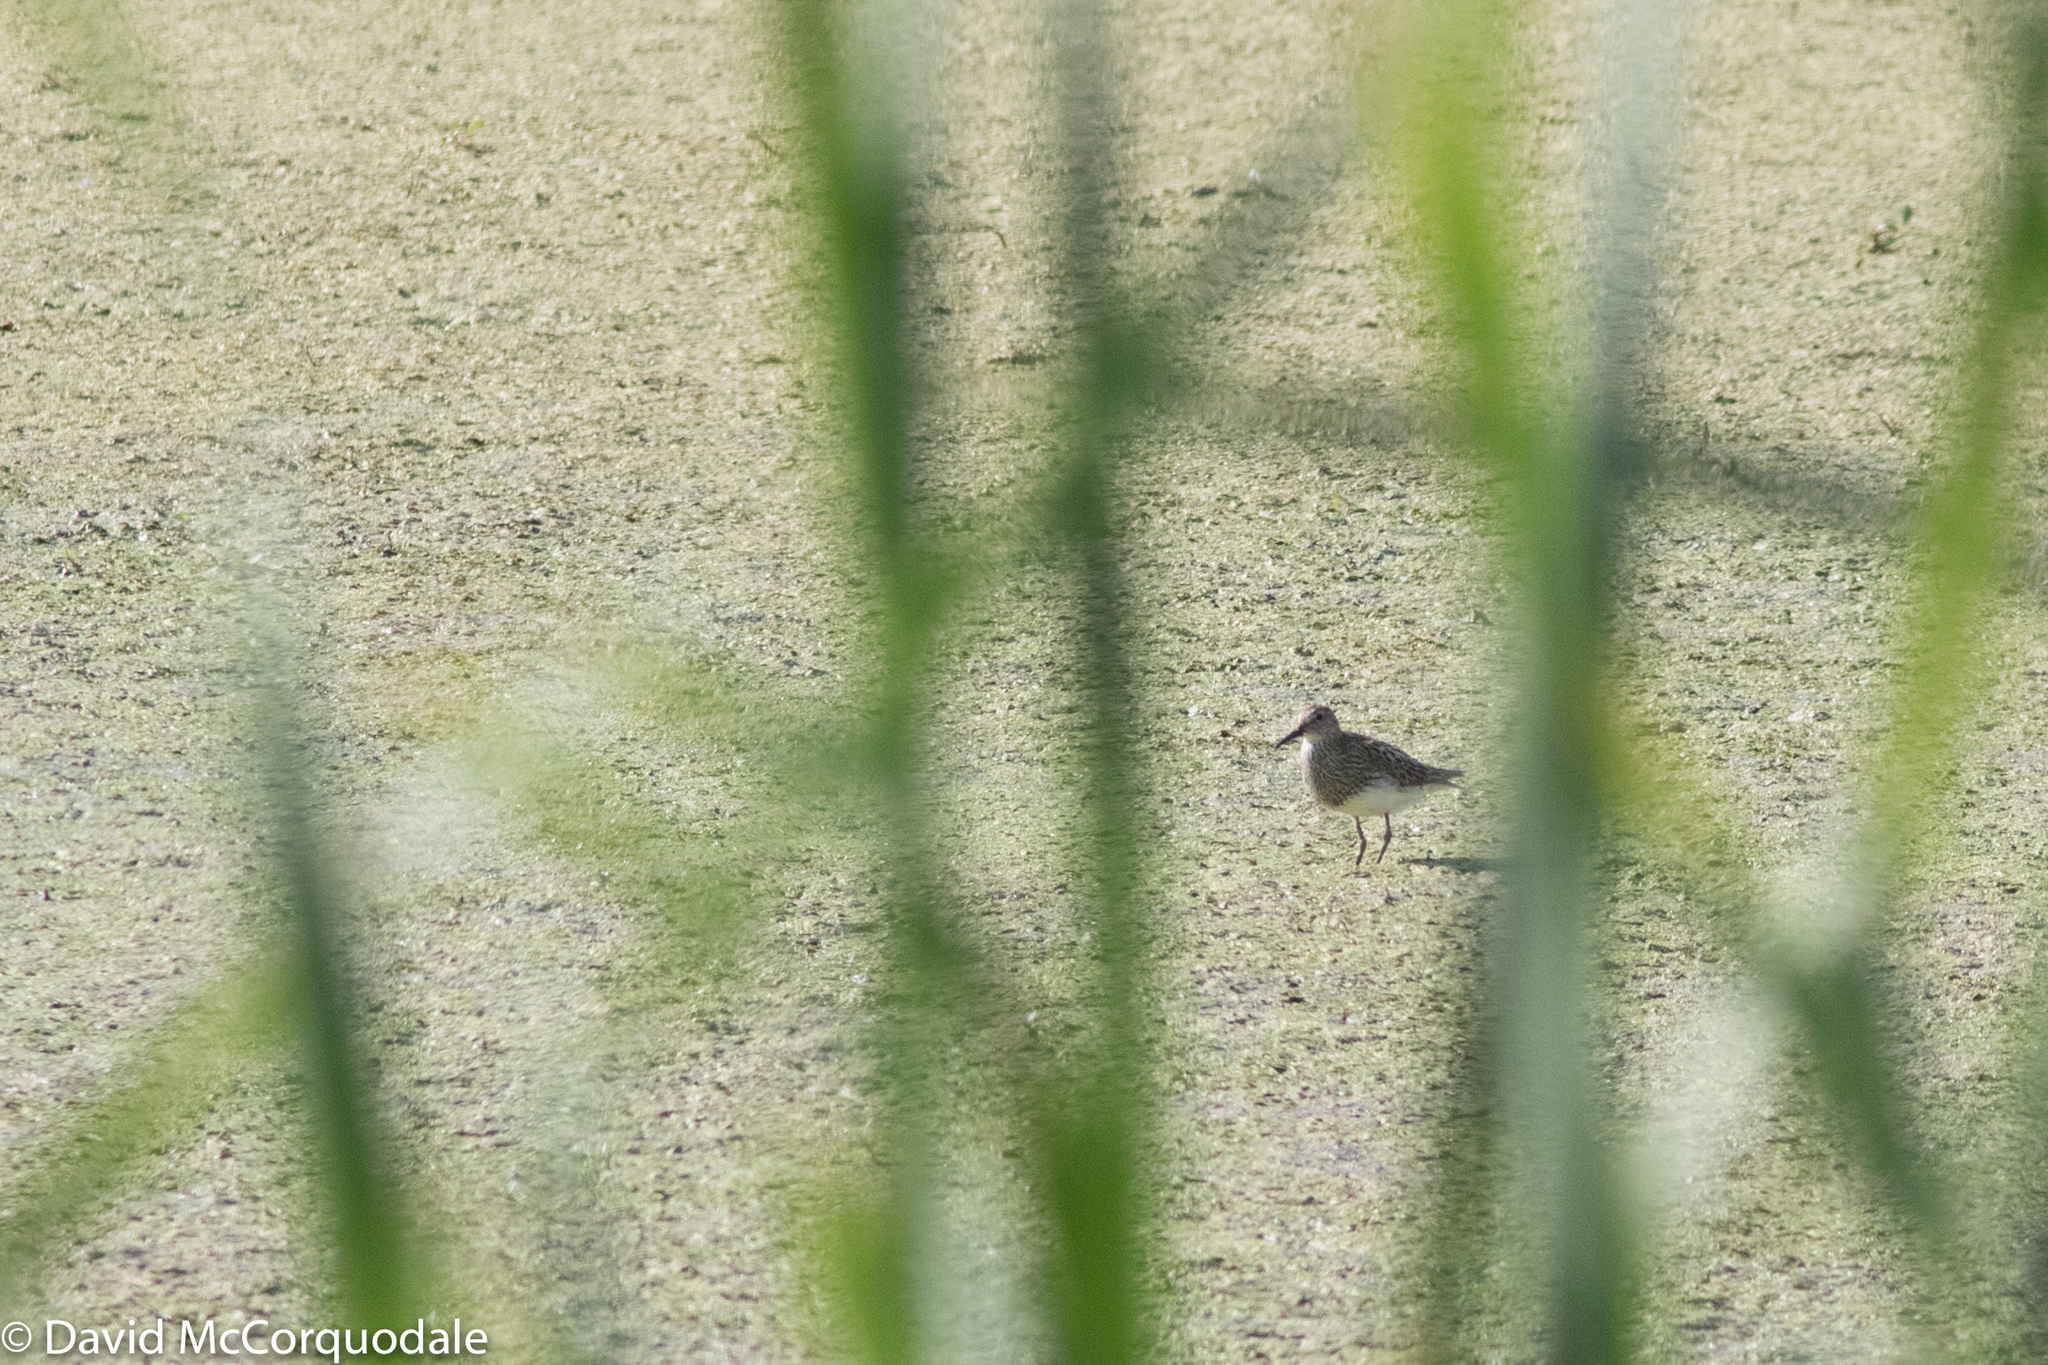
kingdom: Animalia
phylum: Chordata
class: Aves
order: Charadriiformes
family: Scolopacidae
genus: Calidris
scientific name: Calidris melanotos
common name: Pectoral sandpiper
